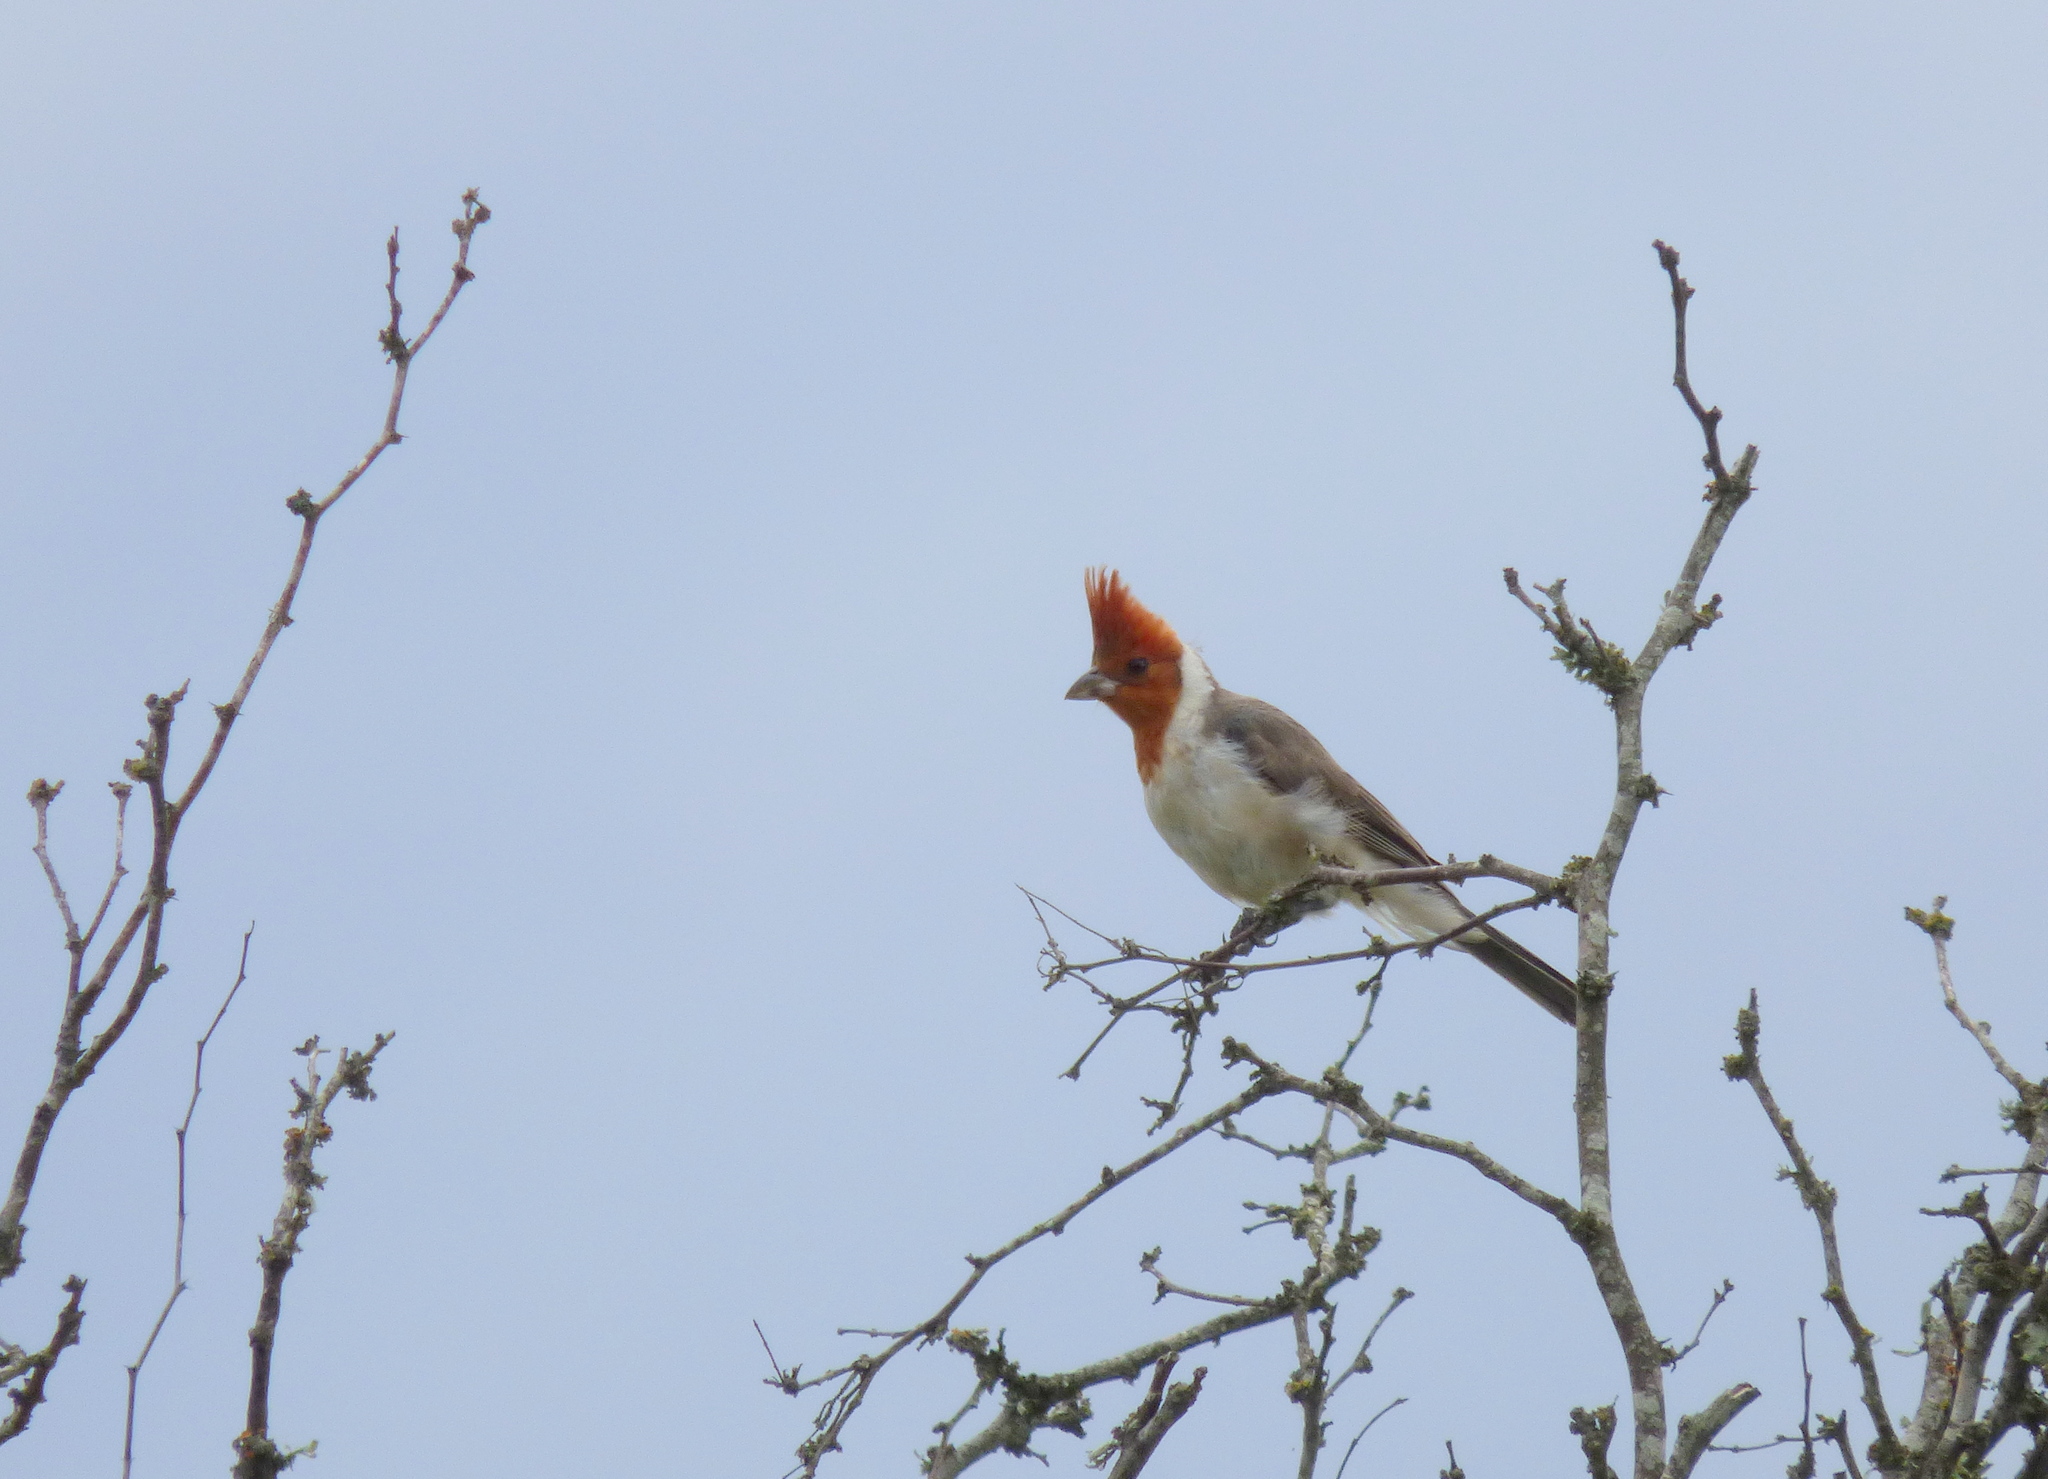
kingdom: Animalia
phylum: Chordata
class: Aves
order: Passeriformes
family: Thraupidae
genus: Paroaria
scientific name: Paroaria coronata
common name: Red-crested cardinal
